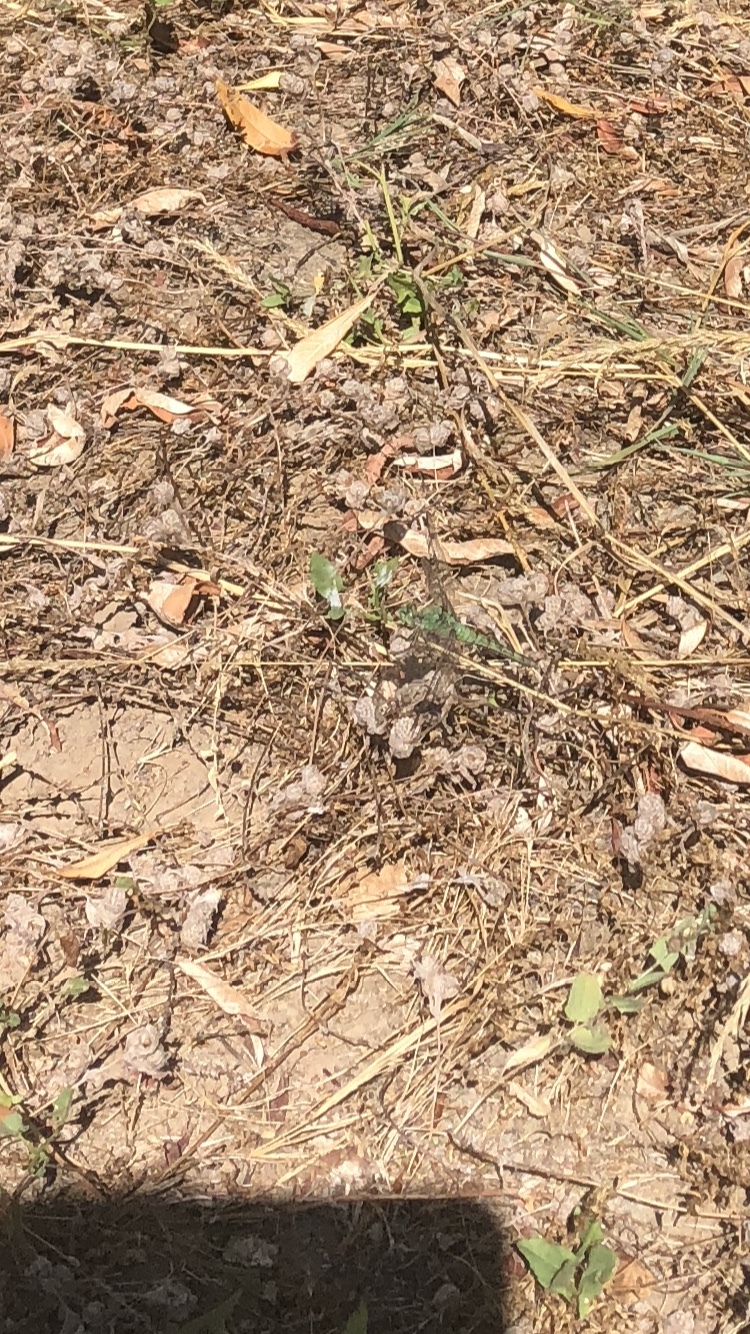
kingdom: Animalia
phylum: Arthropoda
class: Insecta
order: Odonata
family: Libellulidae
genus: Erythemis
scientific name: Erythemis collocata
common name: Western pondhawk
